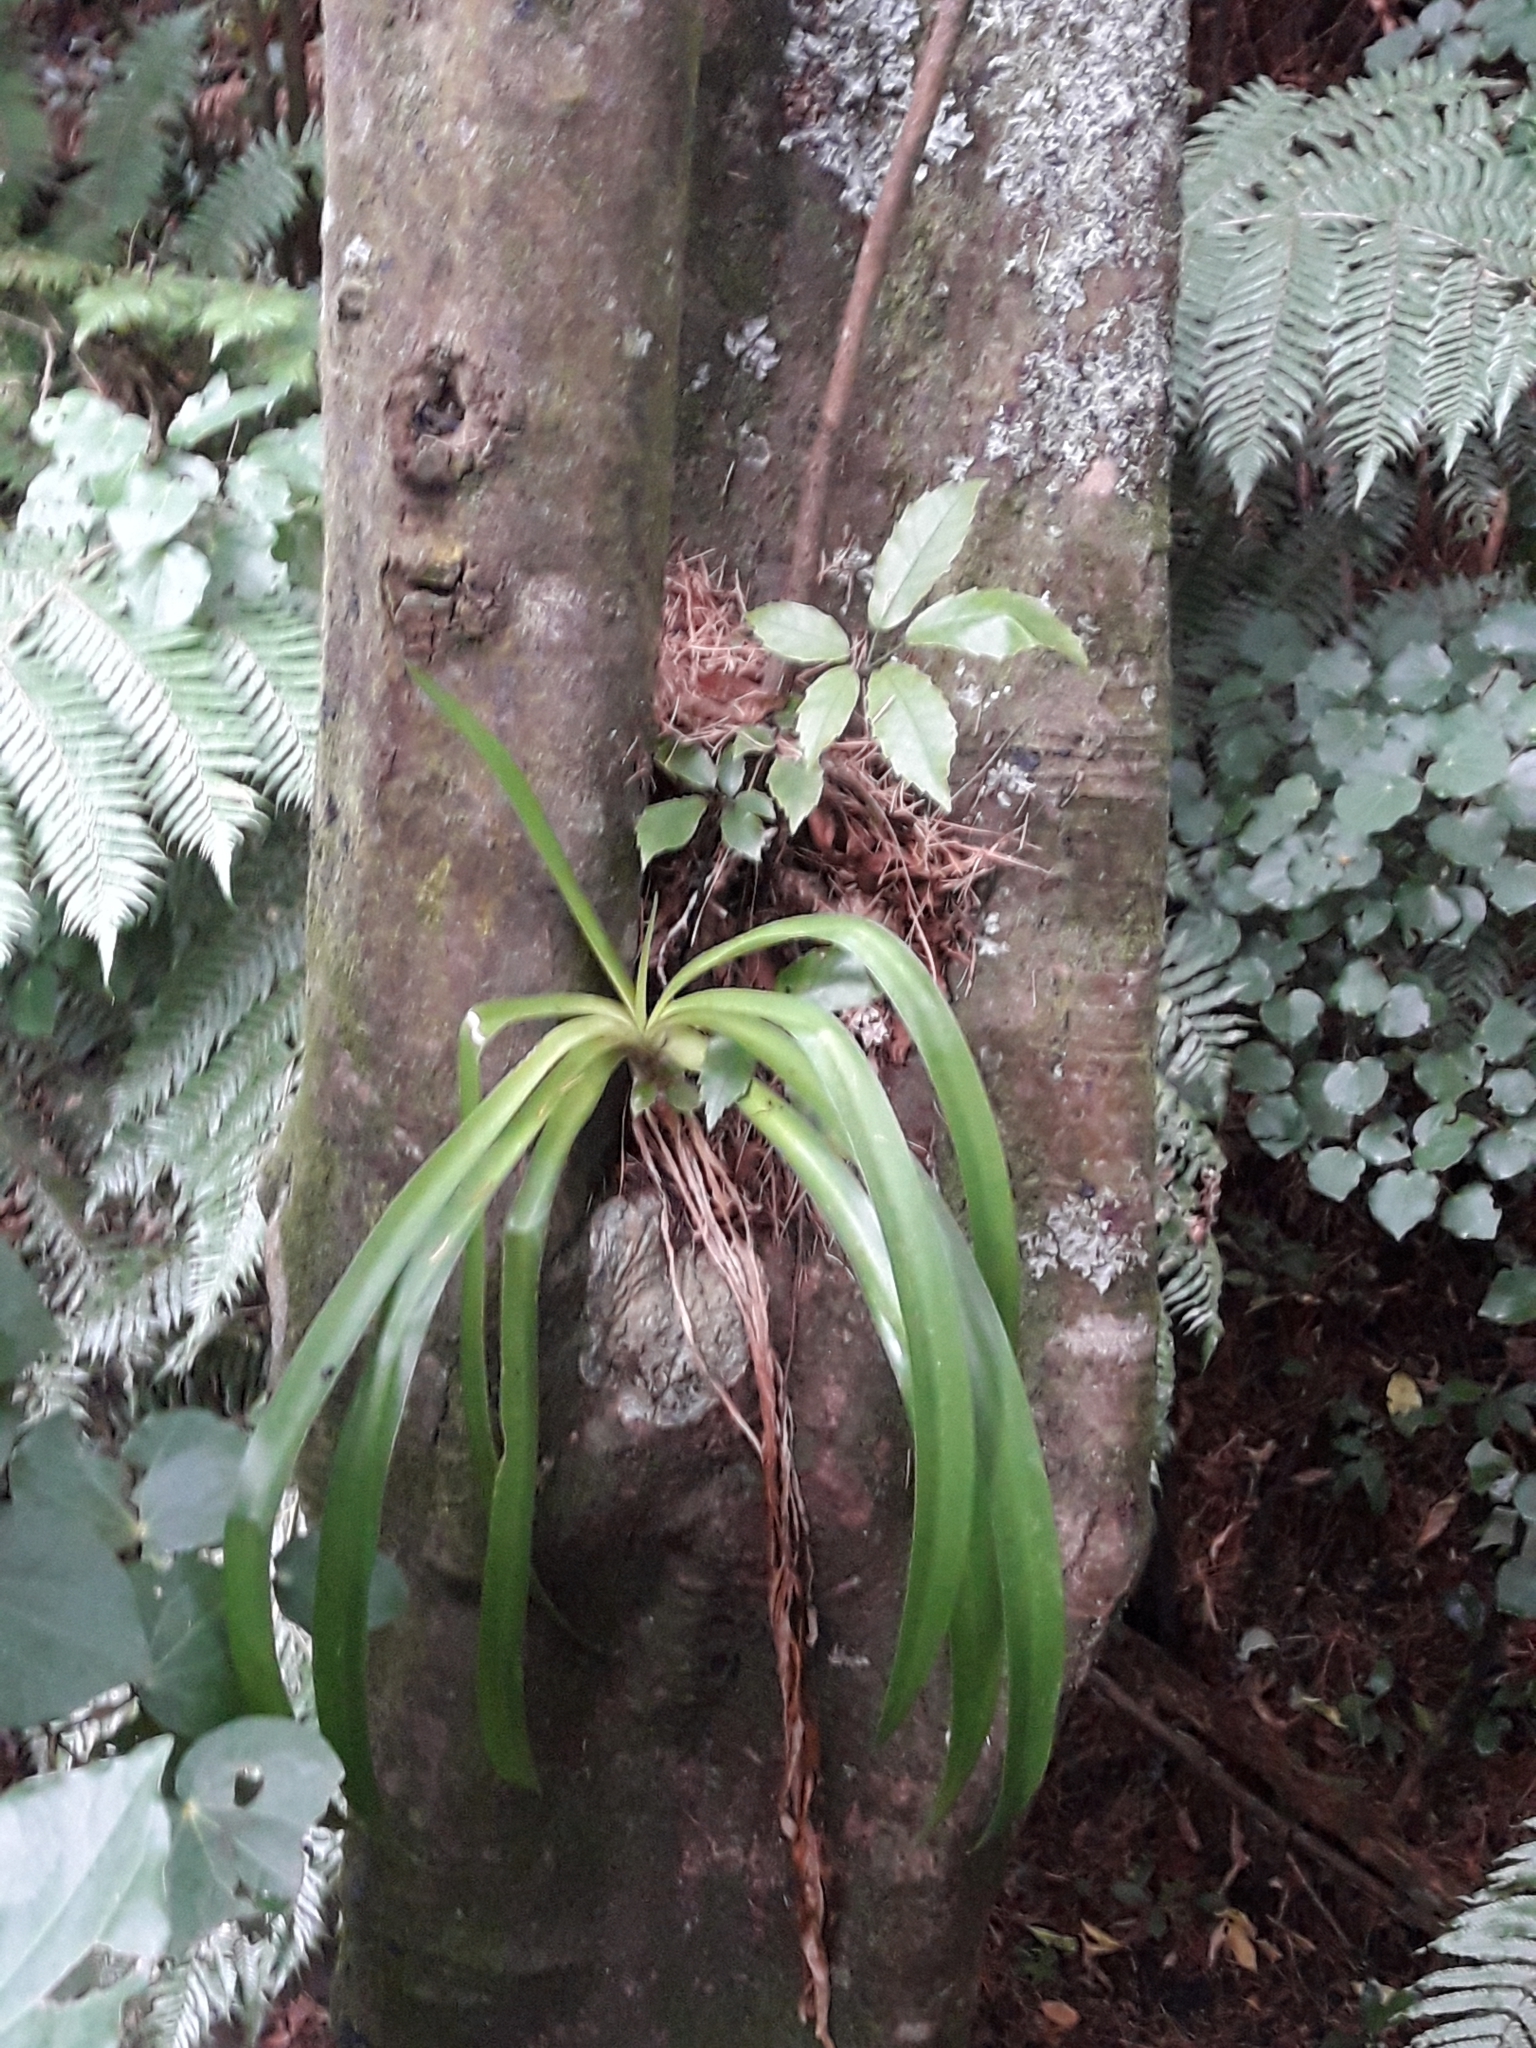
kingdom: Plantae
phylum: Tracheophyta
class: Liliopsida
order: Asparagales
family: Amaryllidaceae
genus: Agapanthus
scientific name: Agapanthus praecox
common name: African-lily
